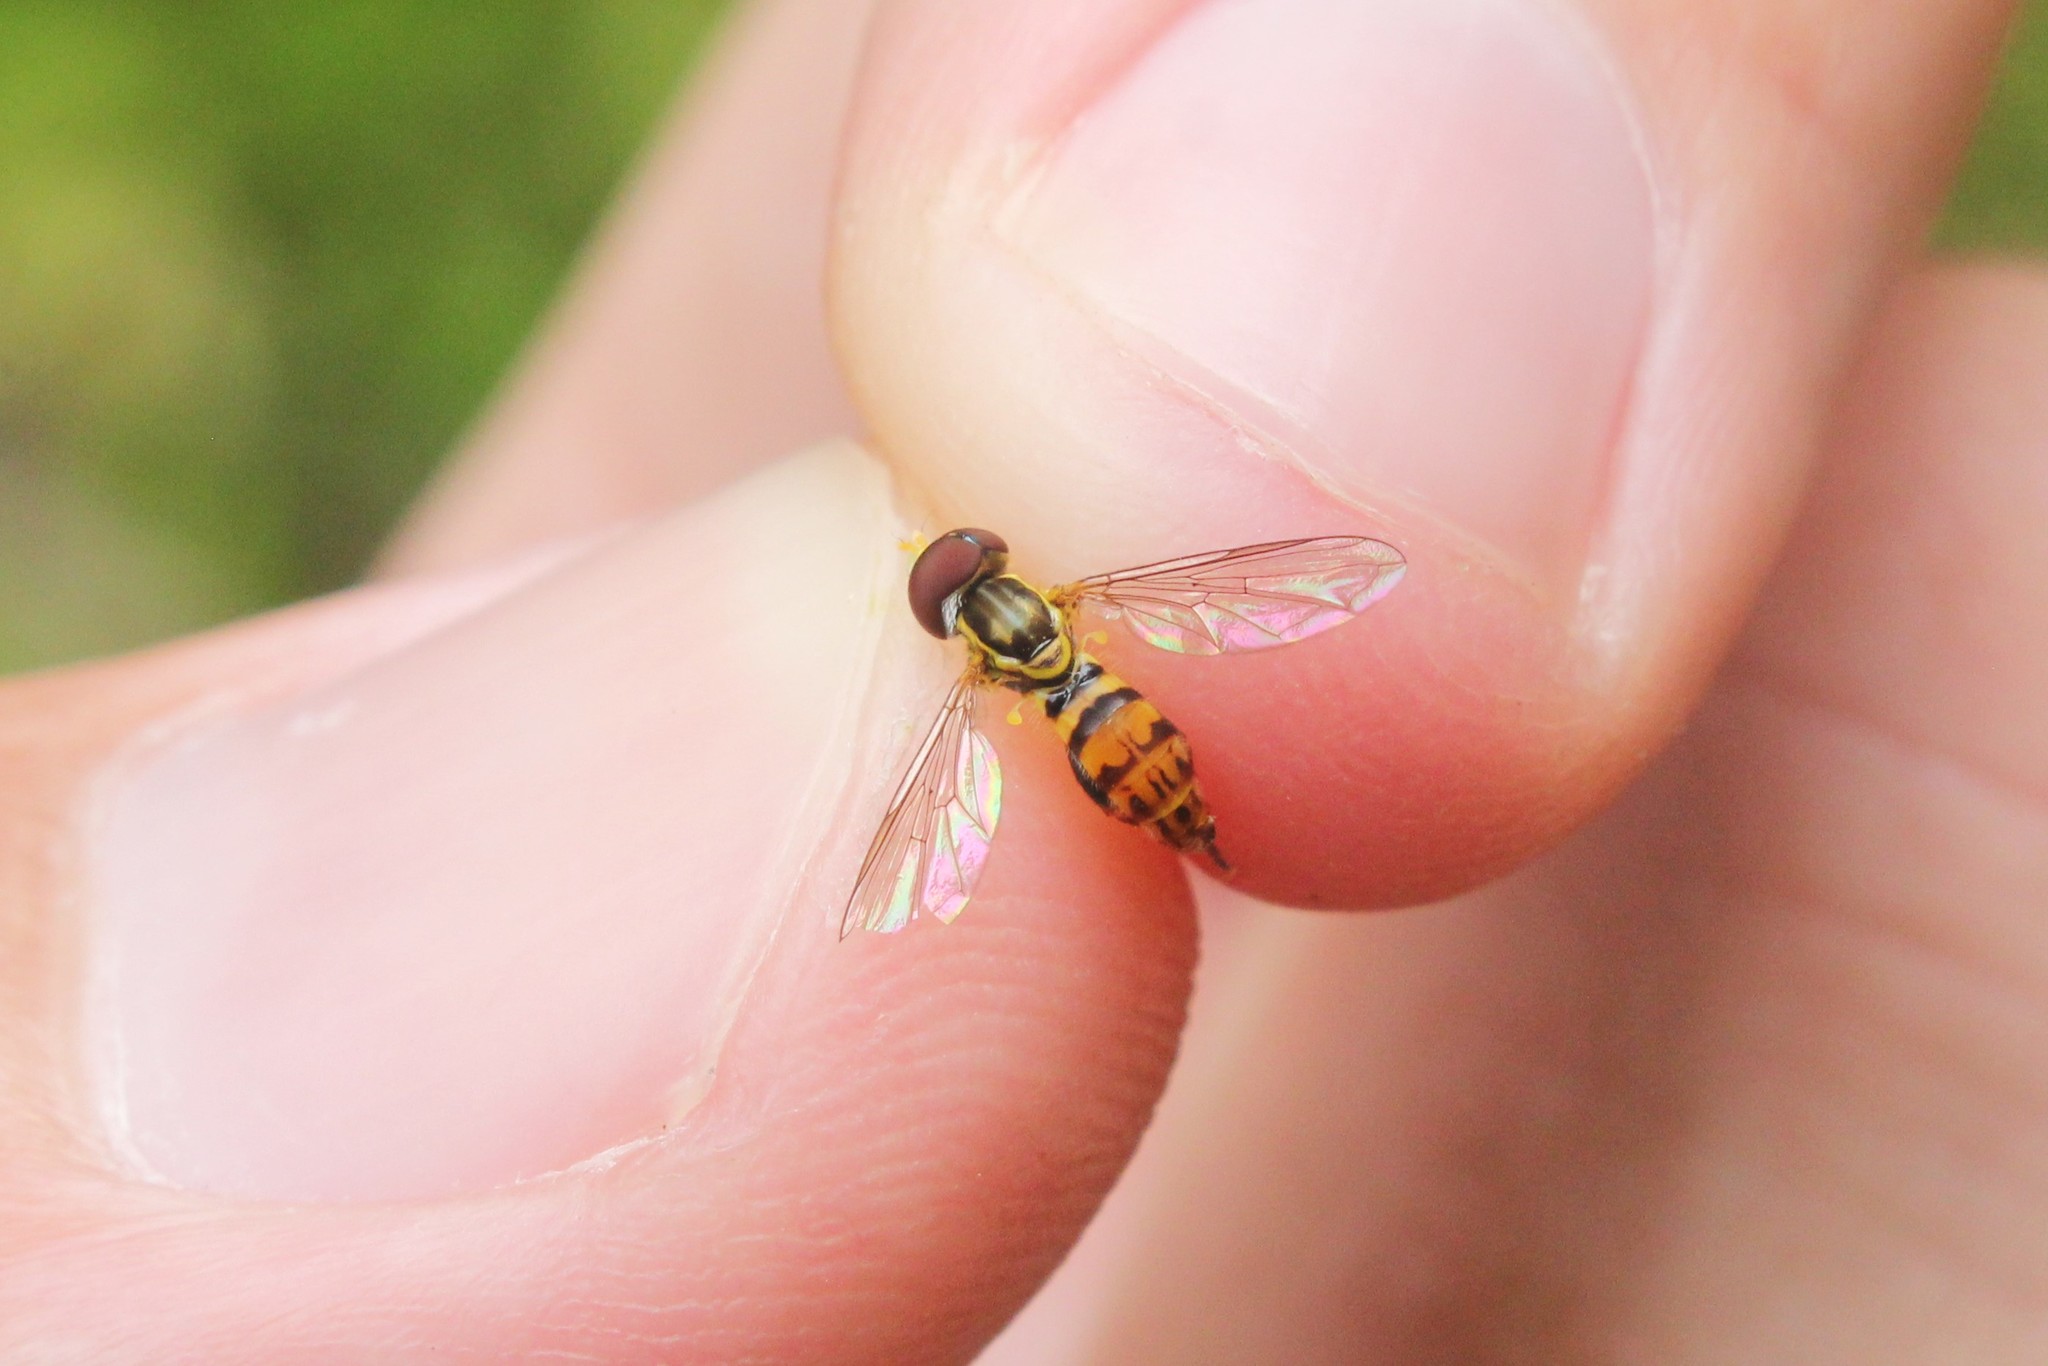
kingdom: Animalia
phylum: Arthropoda
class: Insecta
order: Diptera
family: Syrphidae
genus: Toxomerus
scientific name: Toxomerus geminatus
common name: Eastern calligrapher
